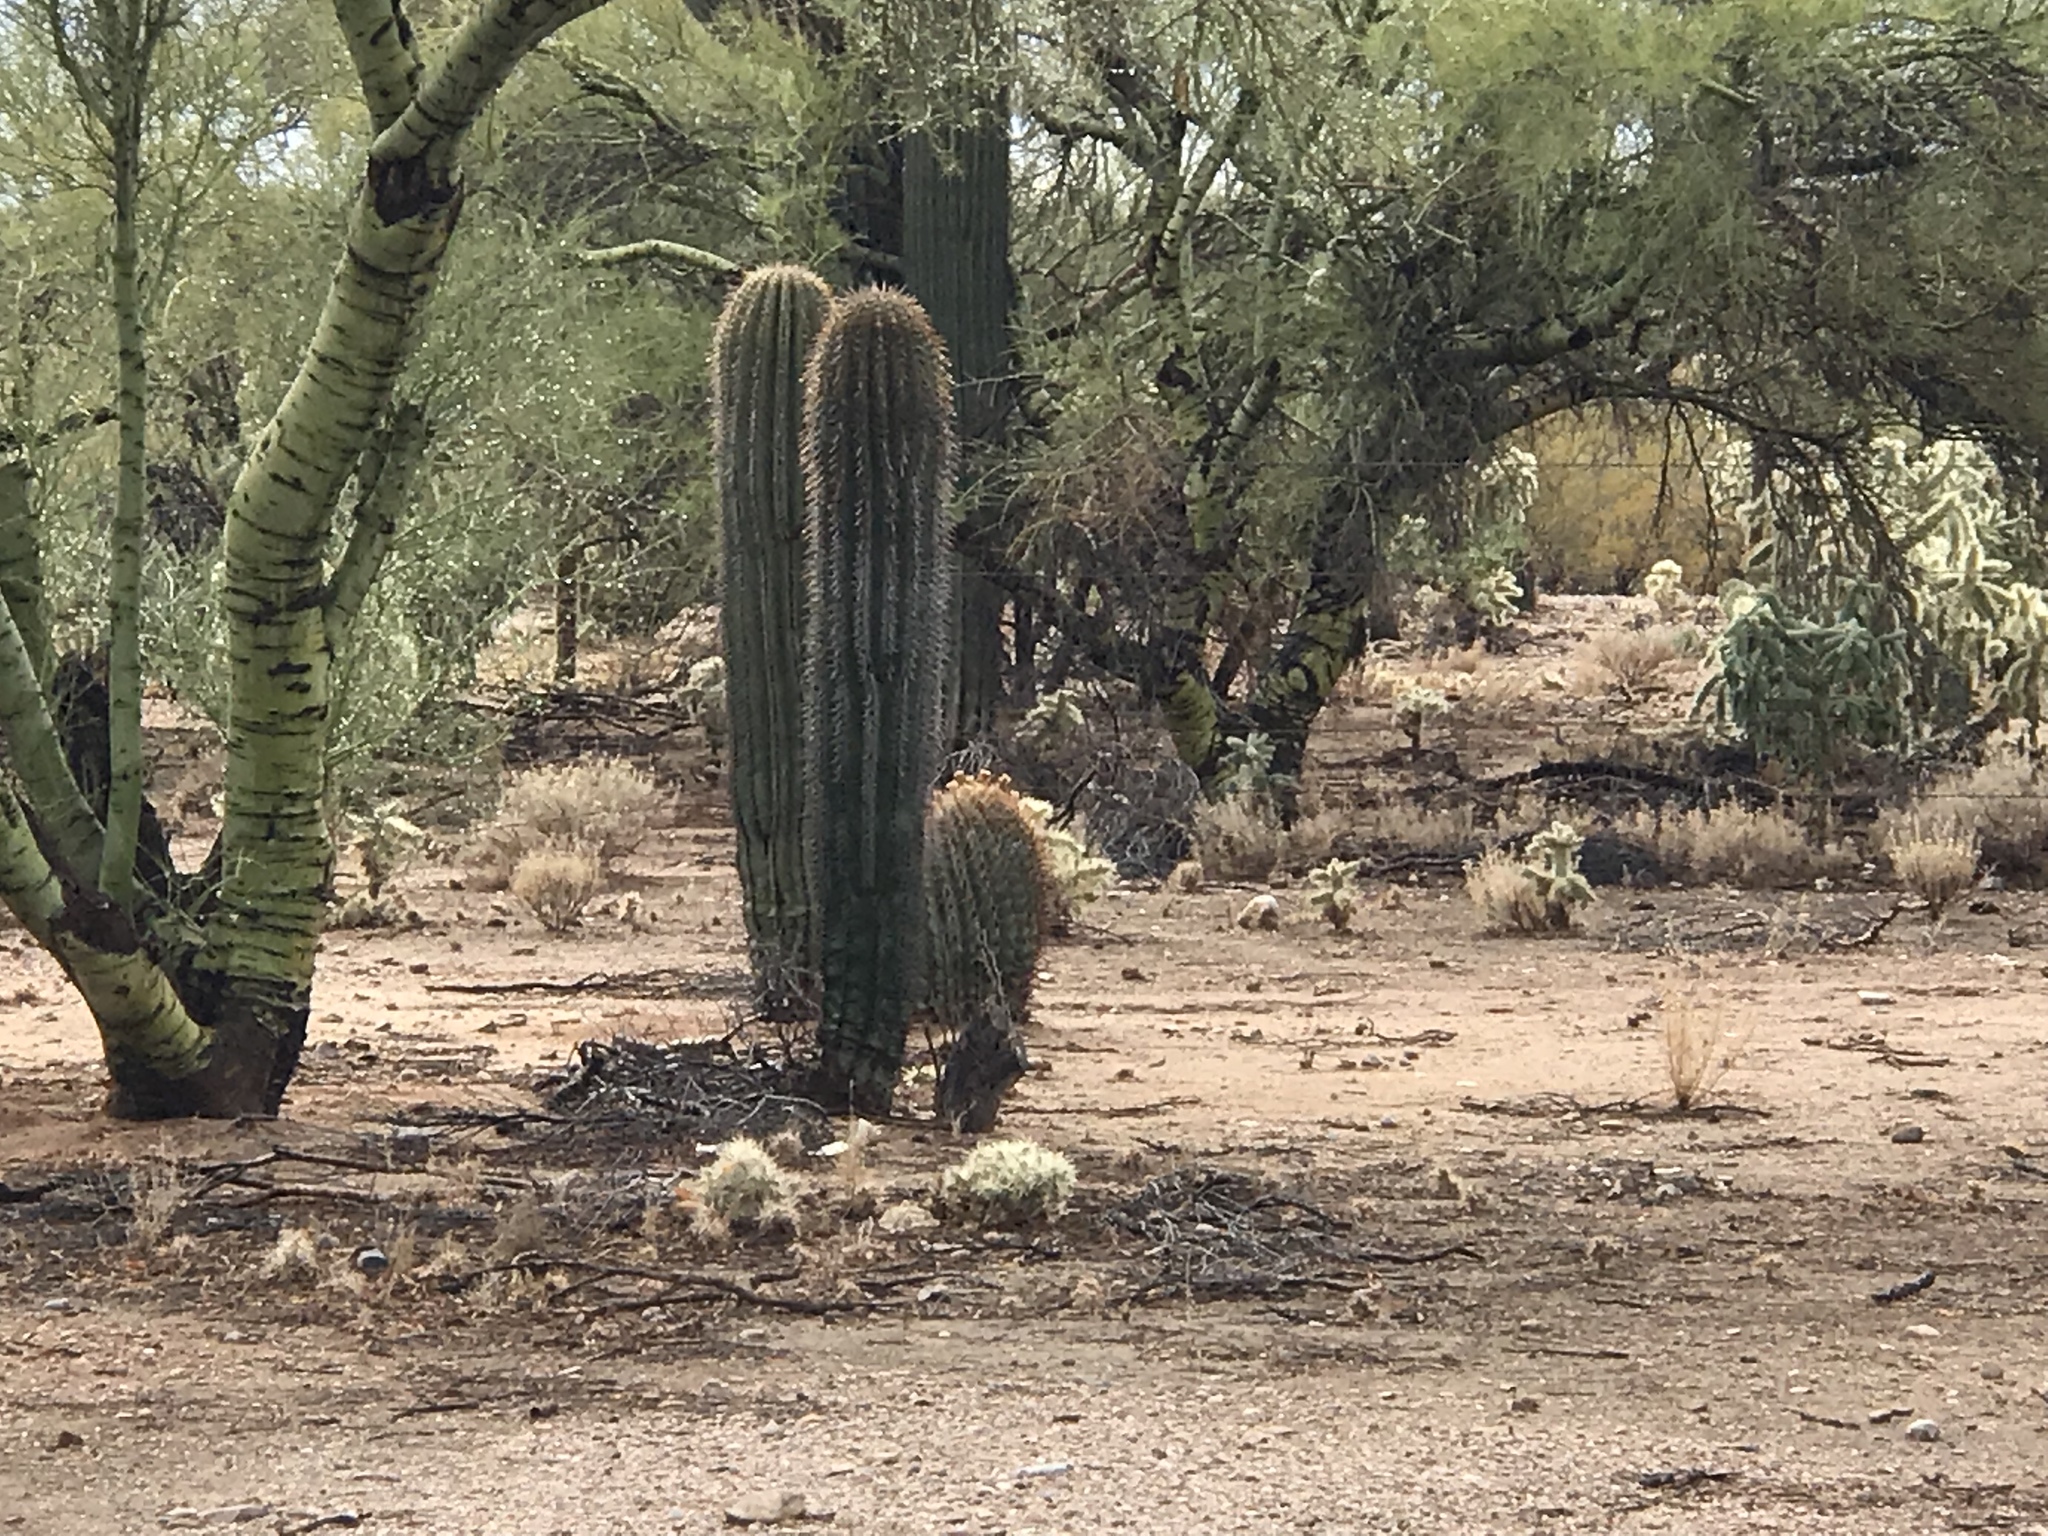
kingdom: Plantae
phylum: Tracheophyta
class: Magnoliopsida
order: Caryophyllales
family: Cactaceae
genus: Carnegiea
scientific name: Carnegiea gigantea
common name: Saguaro
